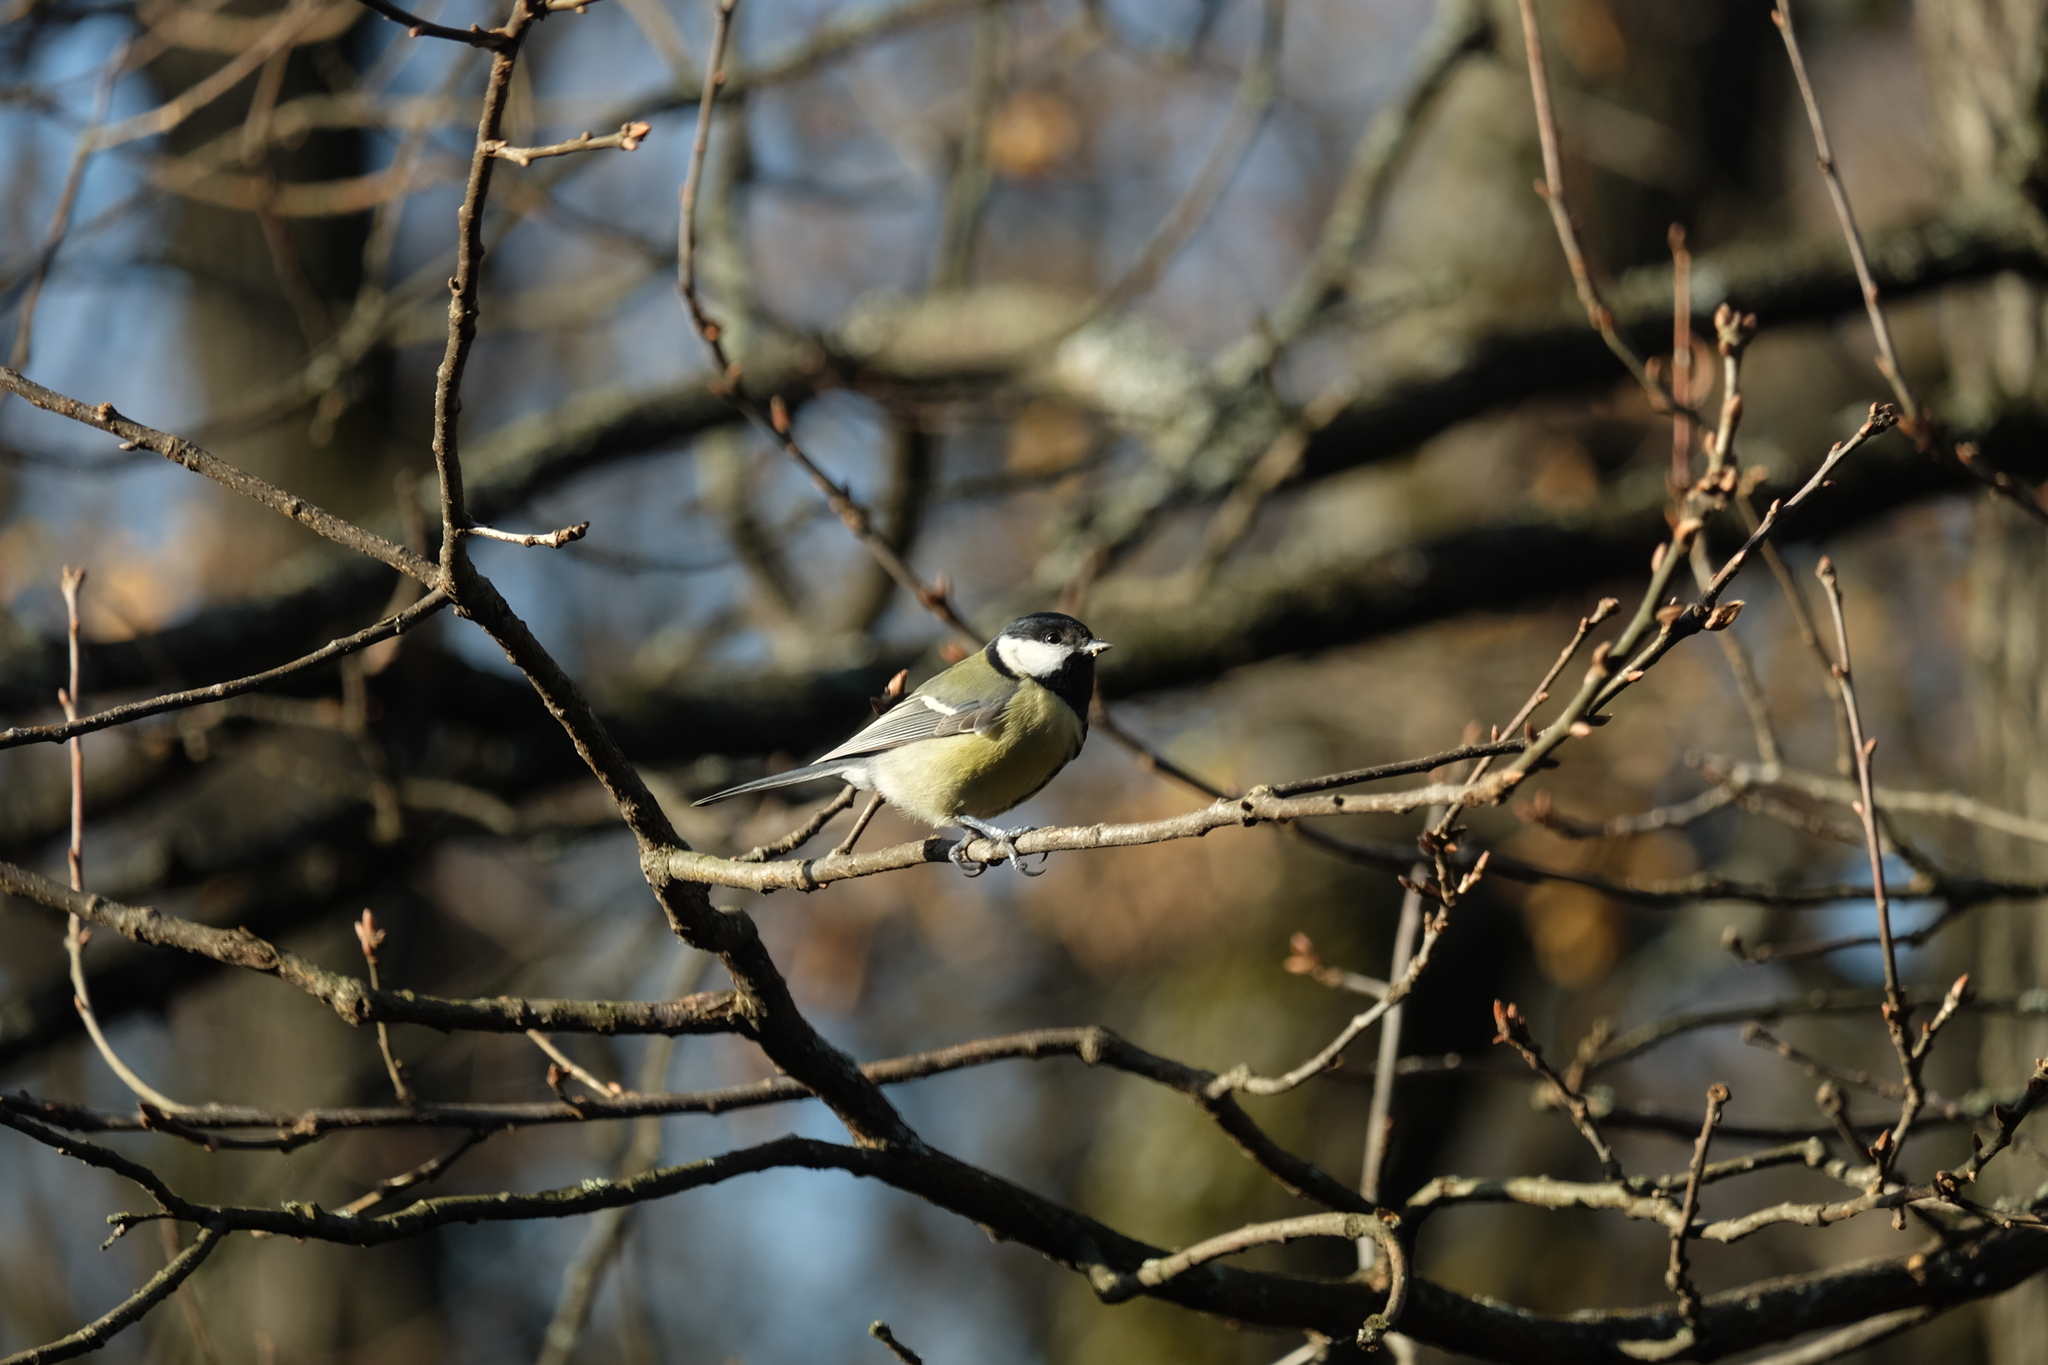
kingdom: Animalia
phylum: Chordata
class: Aves
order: Passeriformes
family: Paridae
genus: Parus
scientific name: Parus major
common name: Great tit
